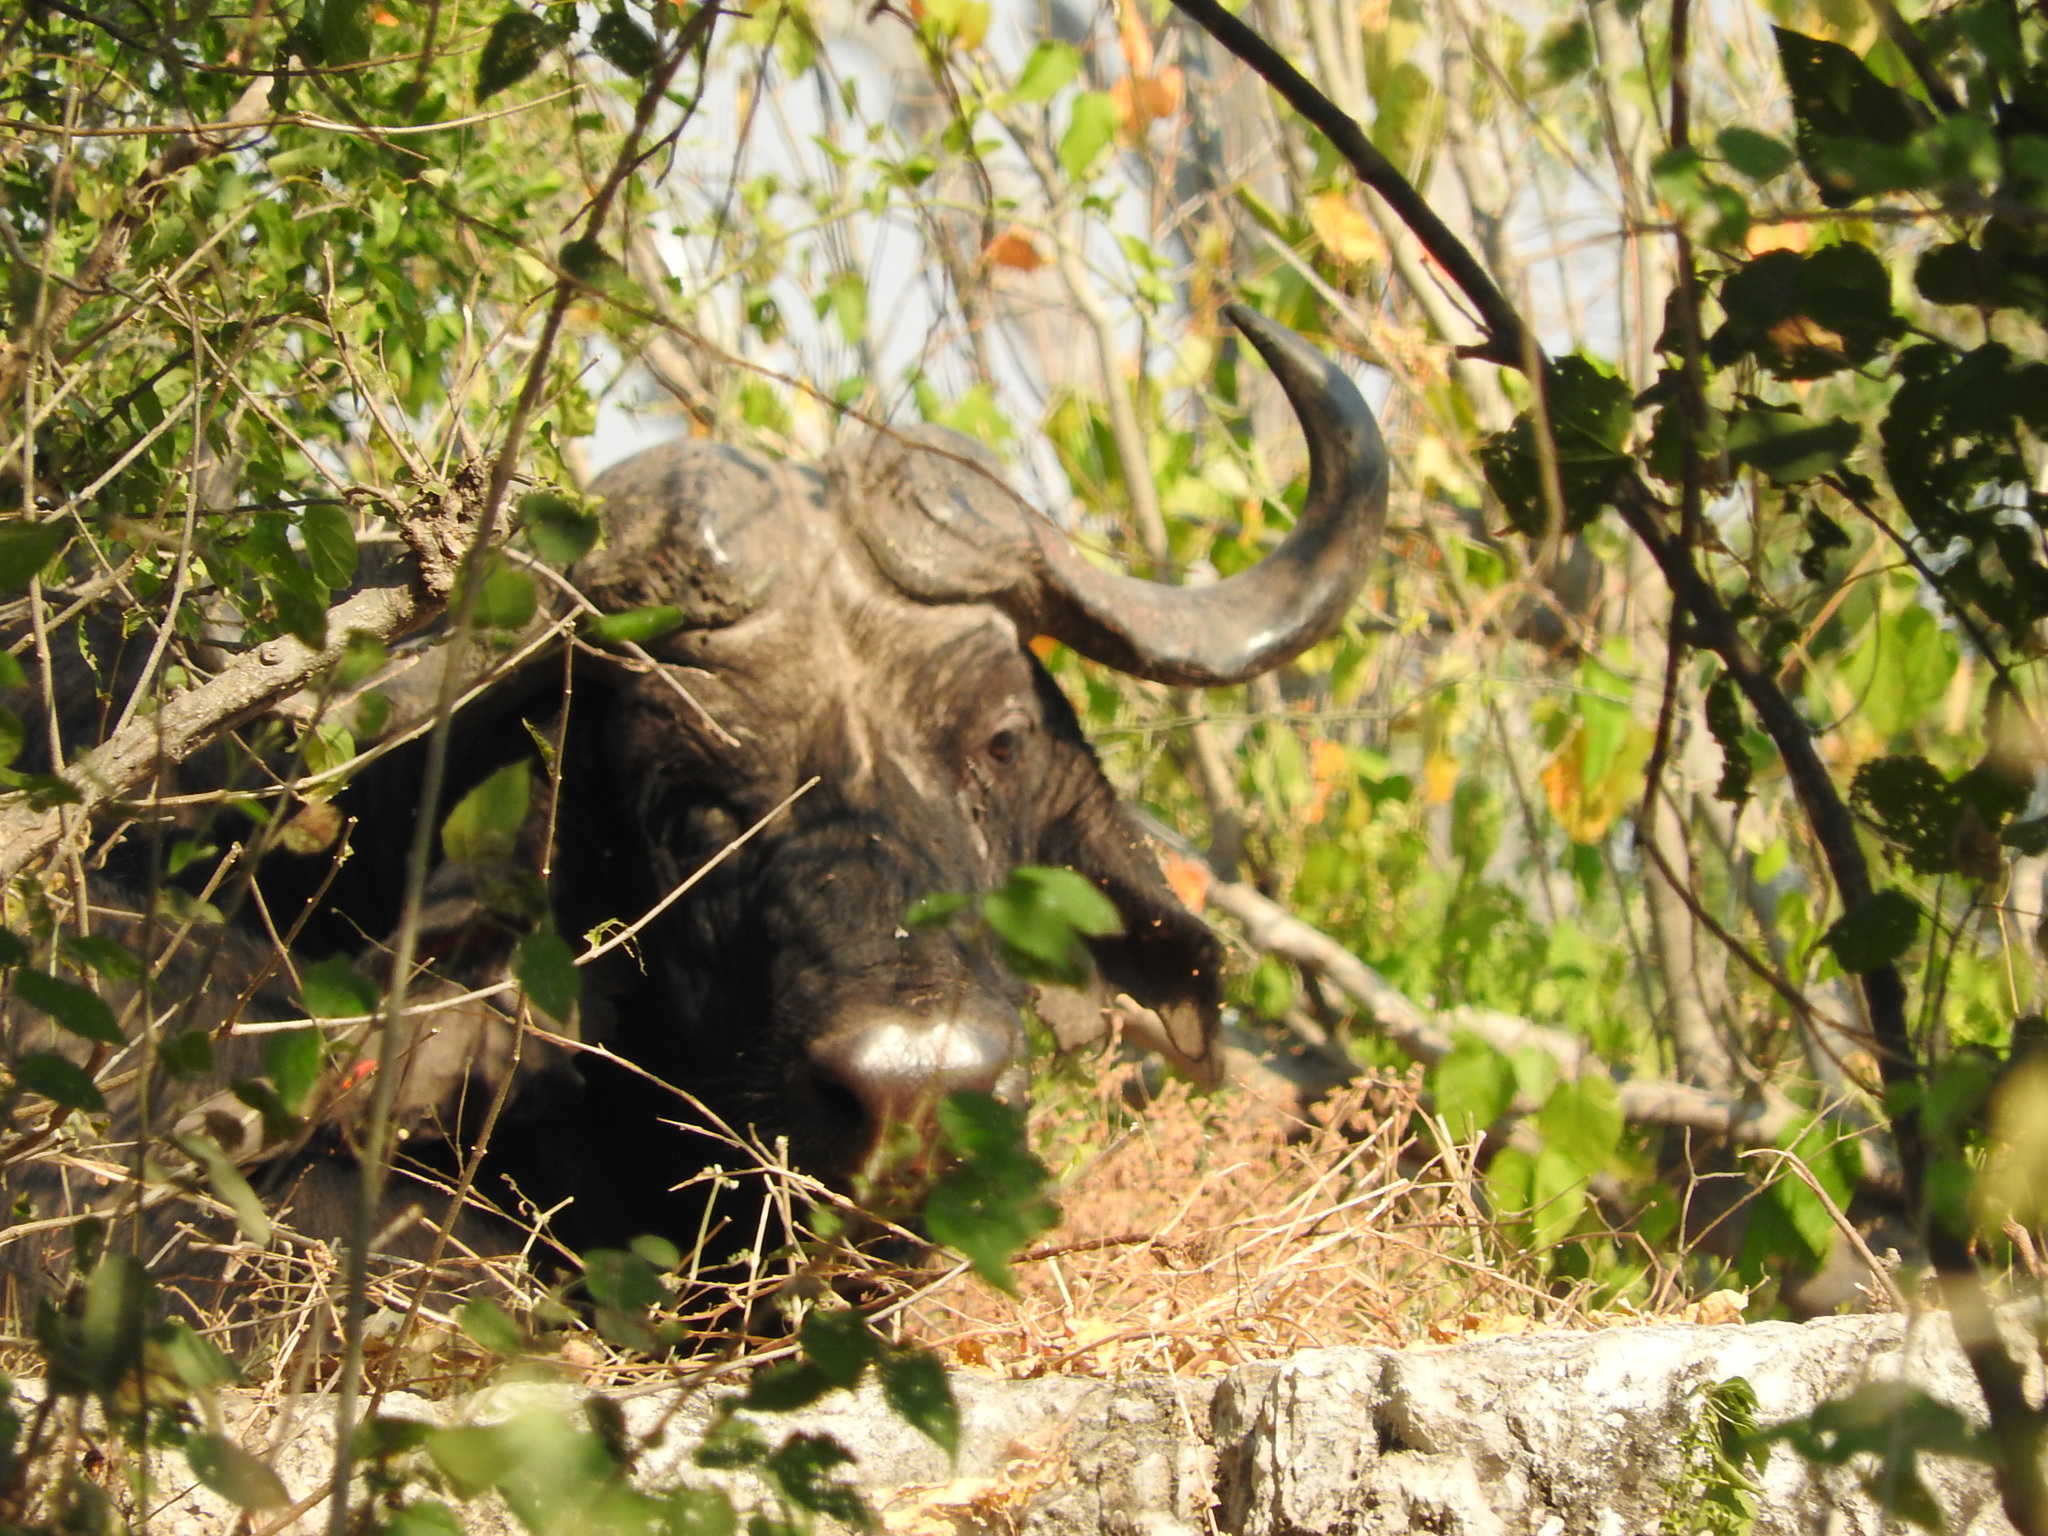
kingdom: Animalia
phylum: Chordata
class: Mammalia
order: Artiodactyla
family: Bovidae
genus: Syncerus
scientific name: Syncerus caffer
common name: African buffalo
